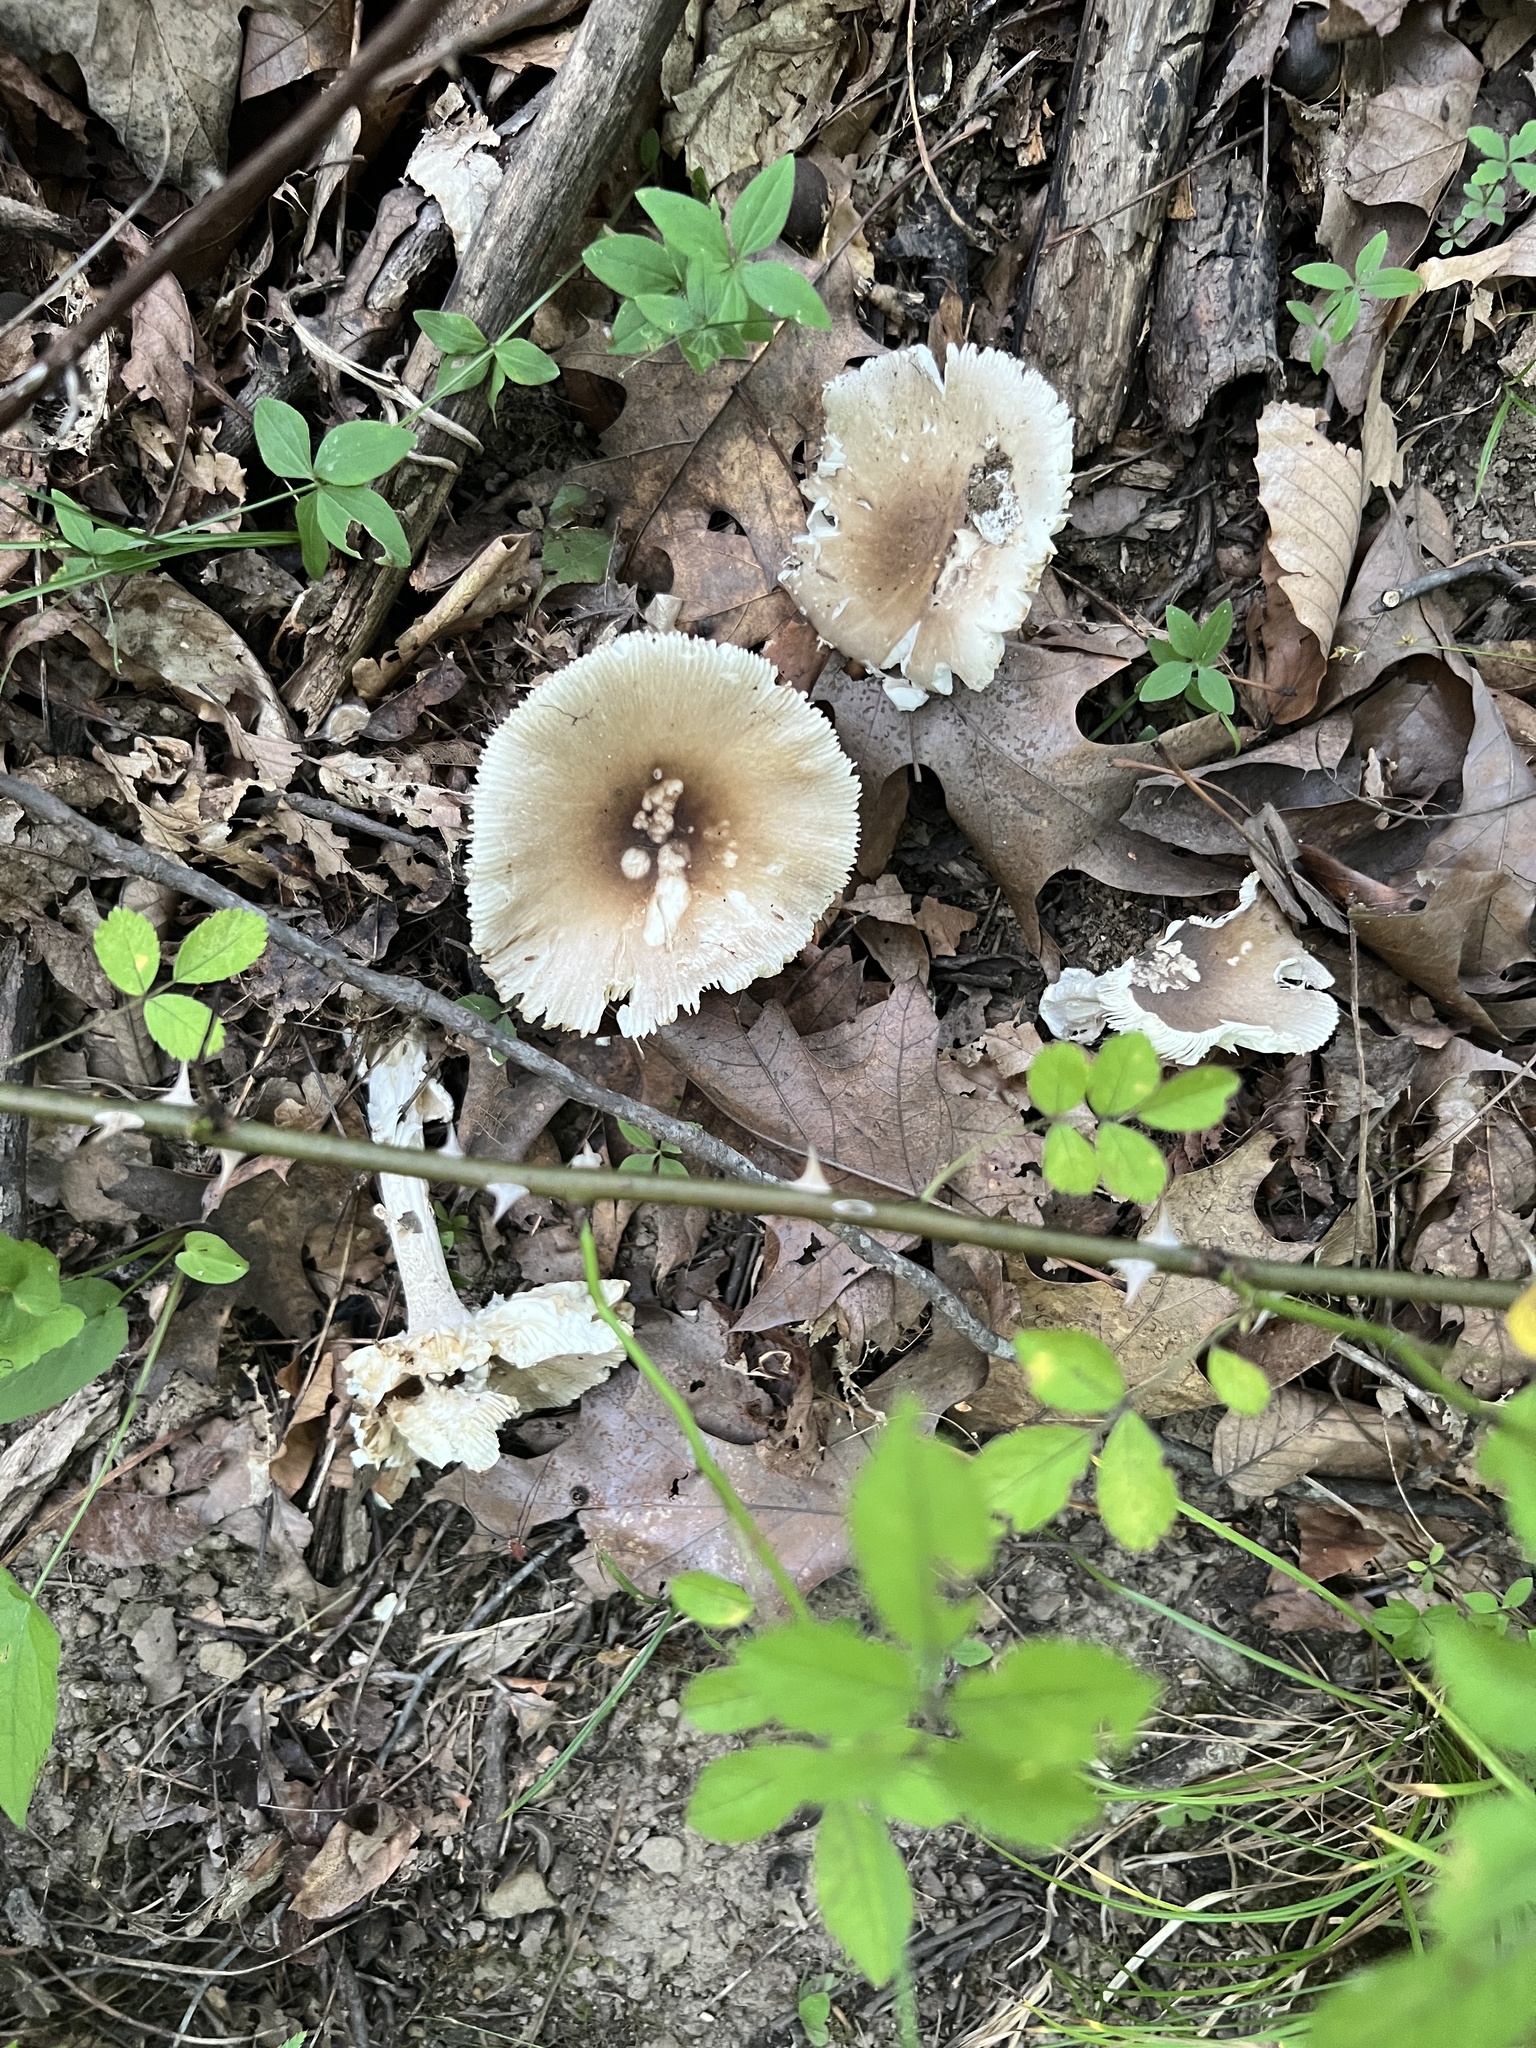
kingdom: Fungi
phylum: Basidiomycota
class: Agaricomycetes
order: Agaricales
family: Amanitaceae
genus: Amanita
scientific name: Amanita spreta
